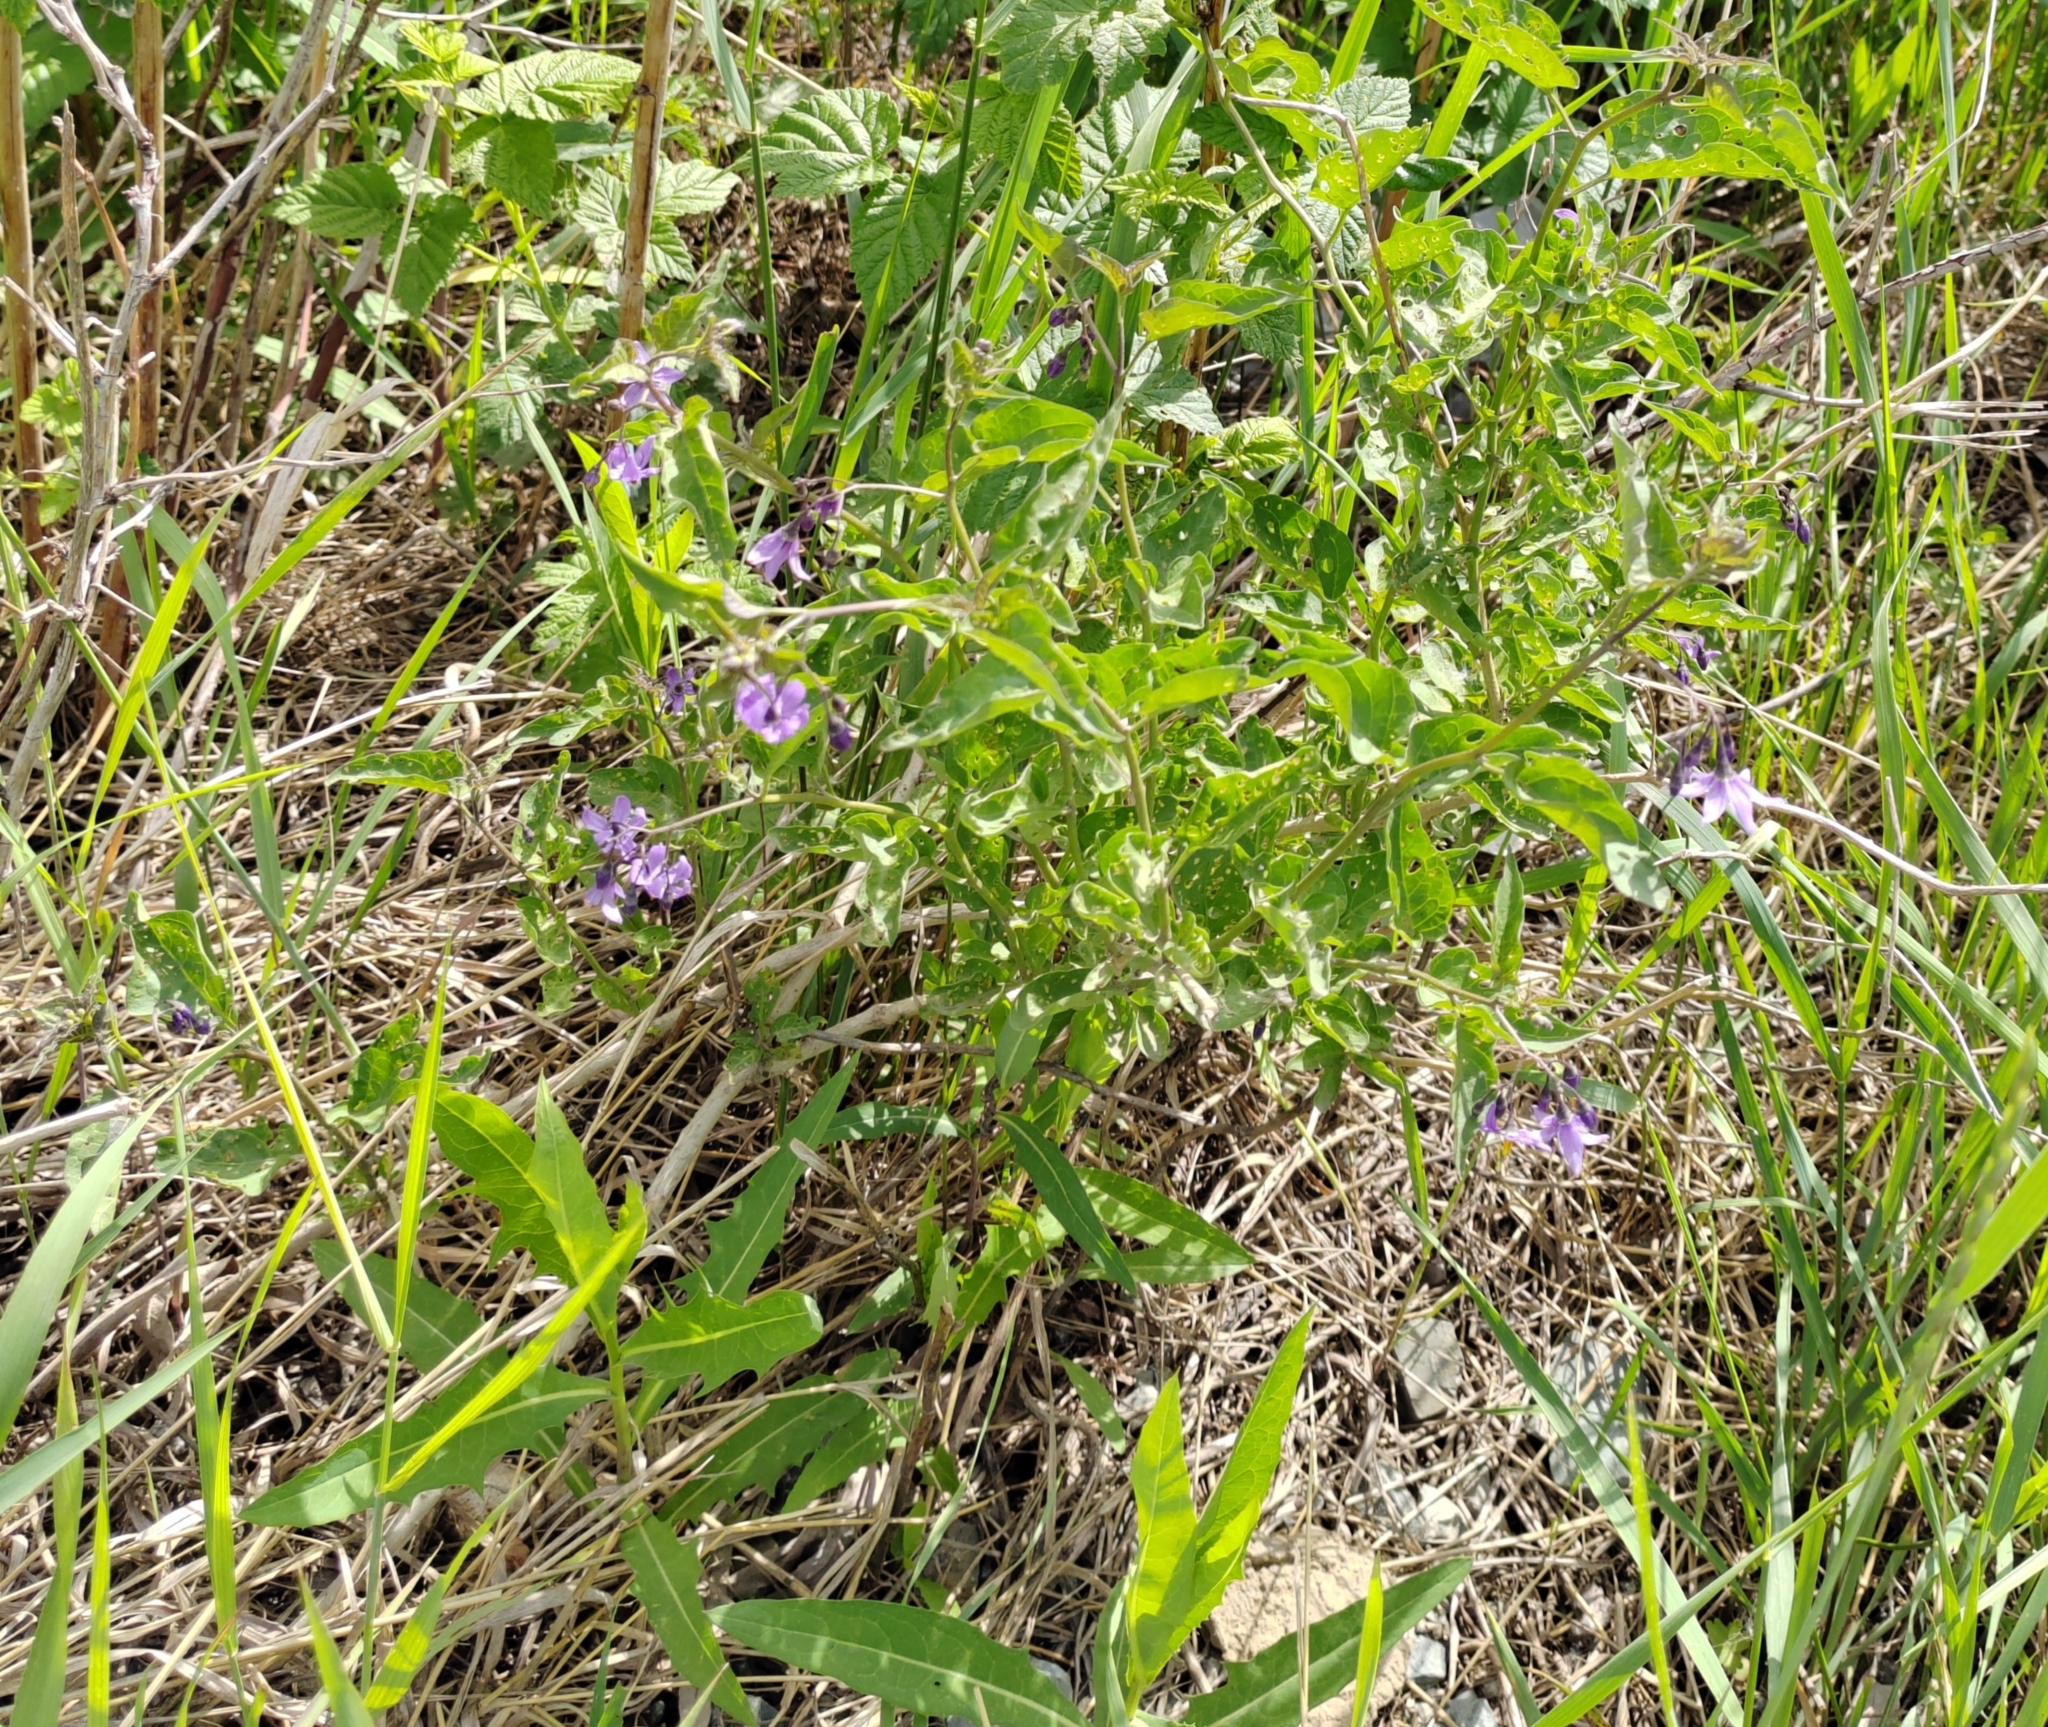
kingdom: Plantae
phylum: Tracheophyta
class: Magnoliopsida
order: Solanales
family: Solanaceae
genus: Solanum
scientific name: Solanum dulcamara
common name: Climbing nightshade
